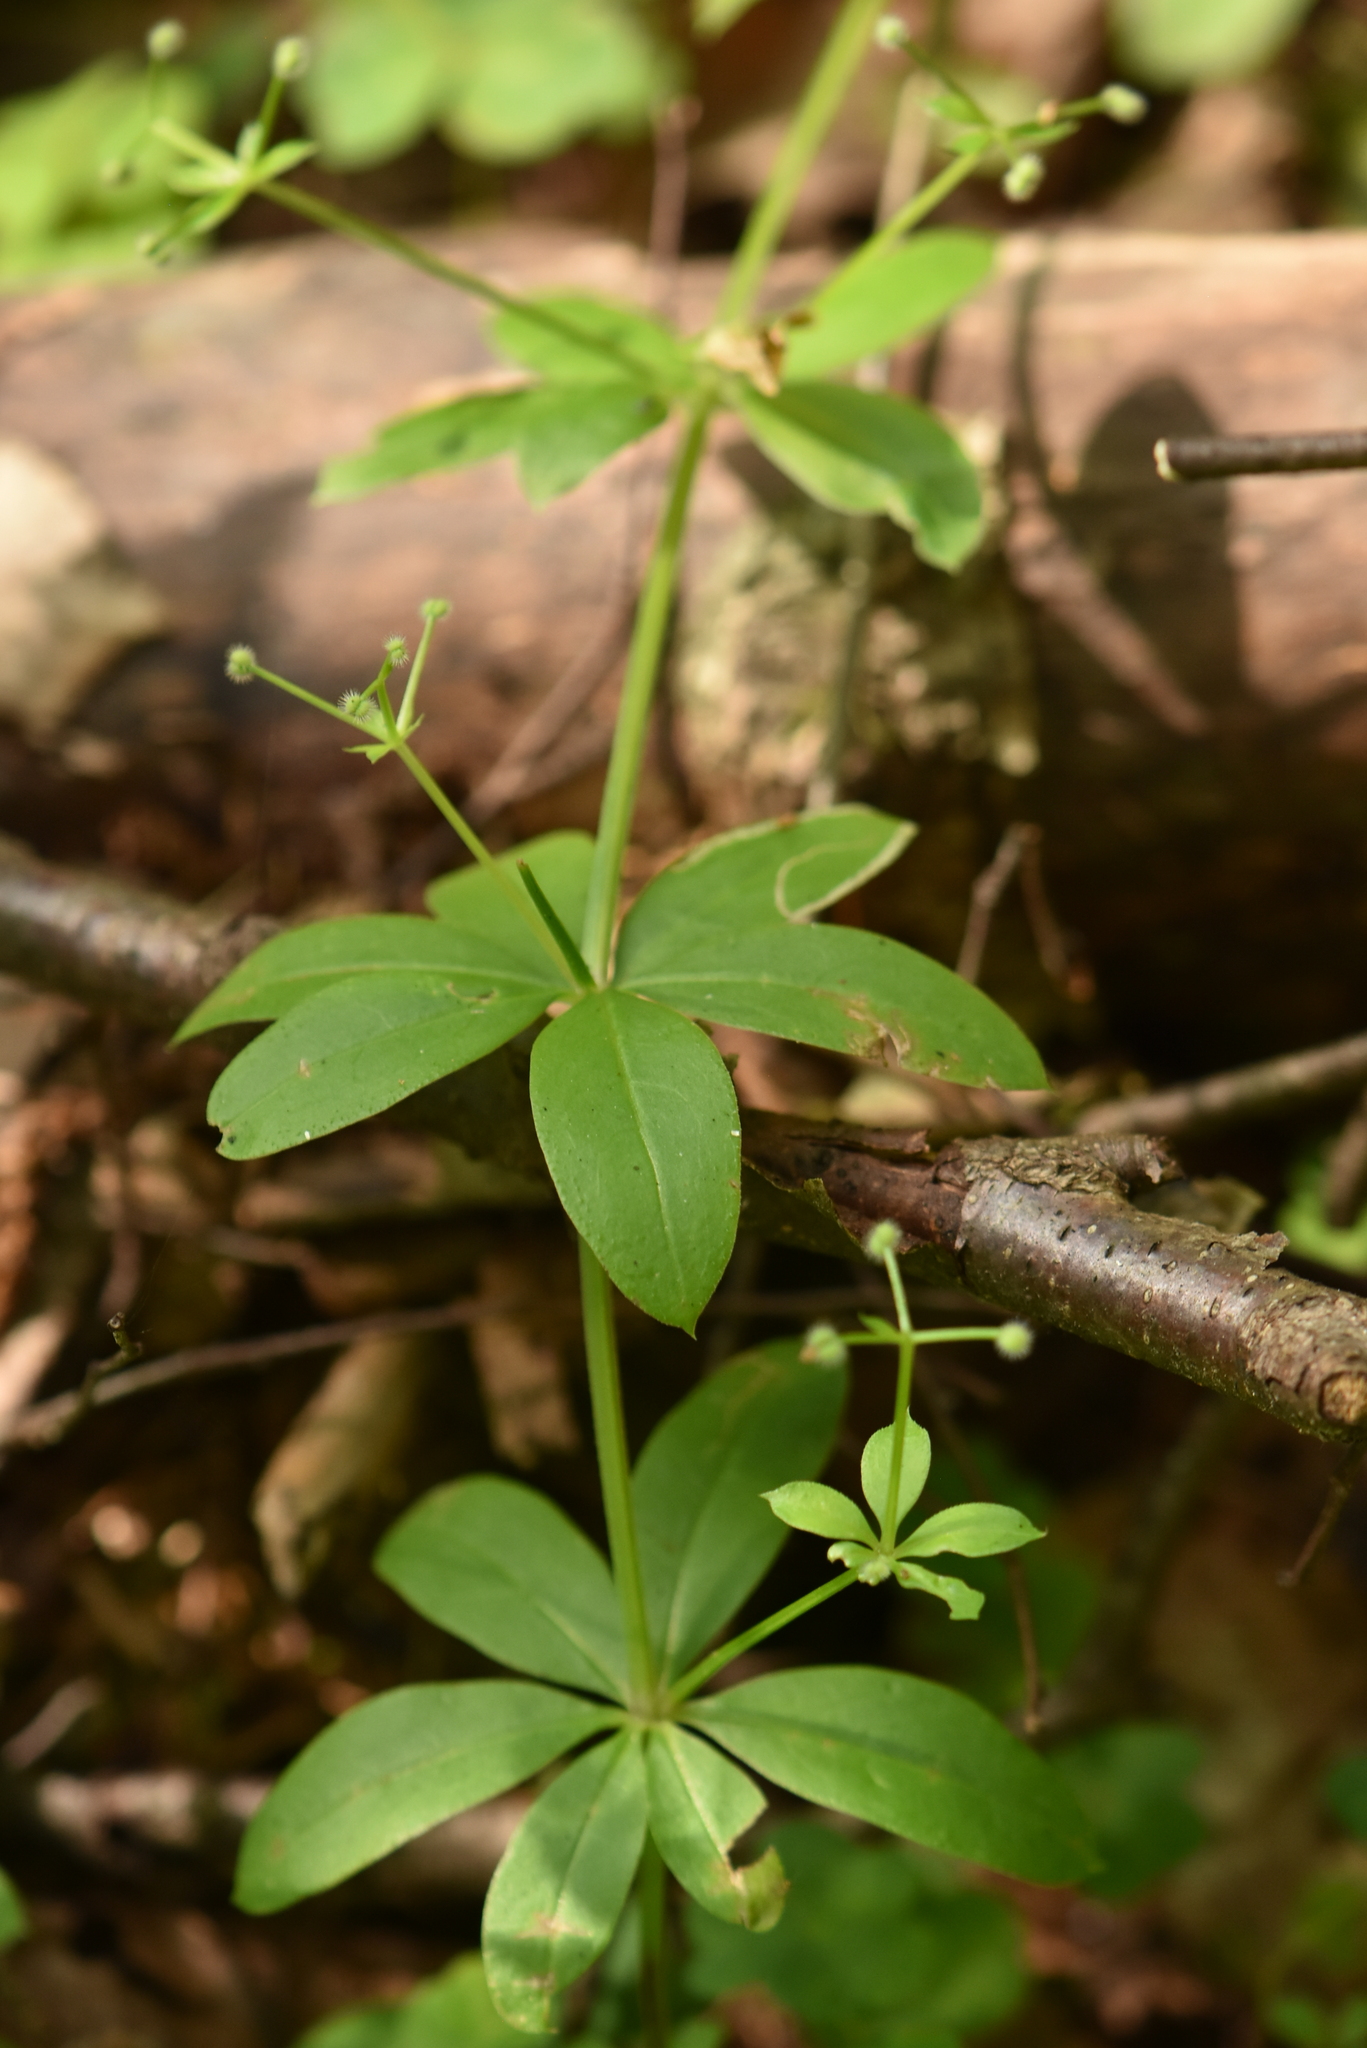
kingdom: Plantae
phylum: Tracheophyta
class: Magnoliopsida
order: Gentianales
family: Rubiaceae
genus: Galium
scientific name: Galium triflorum
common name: Fragrant bedstraw
